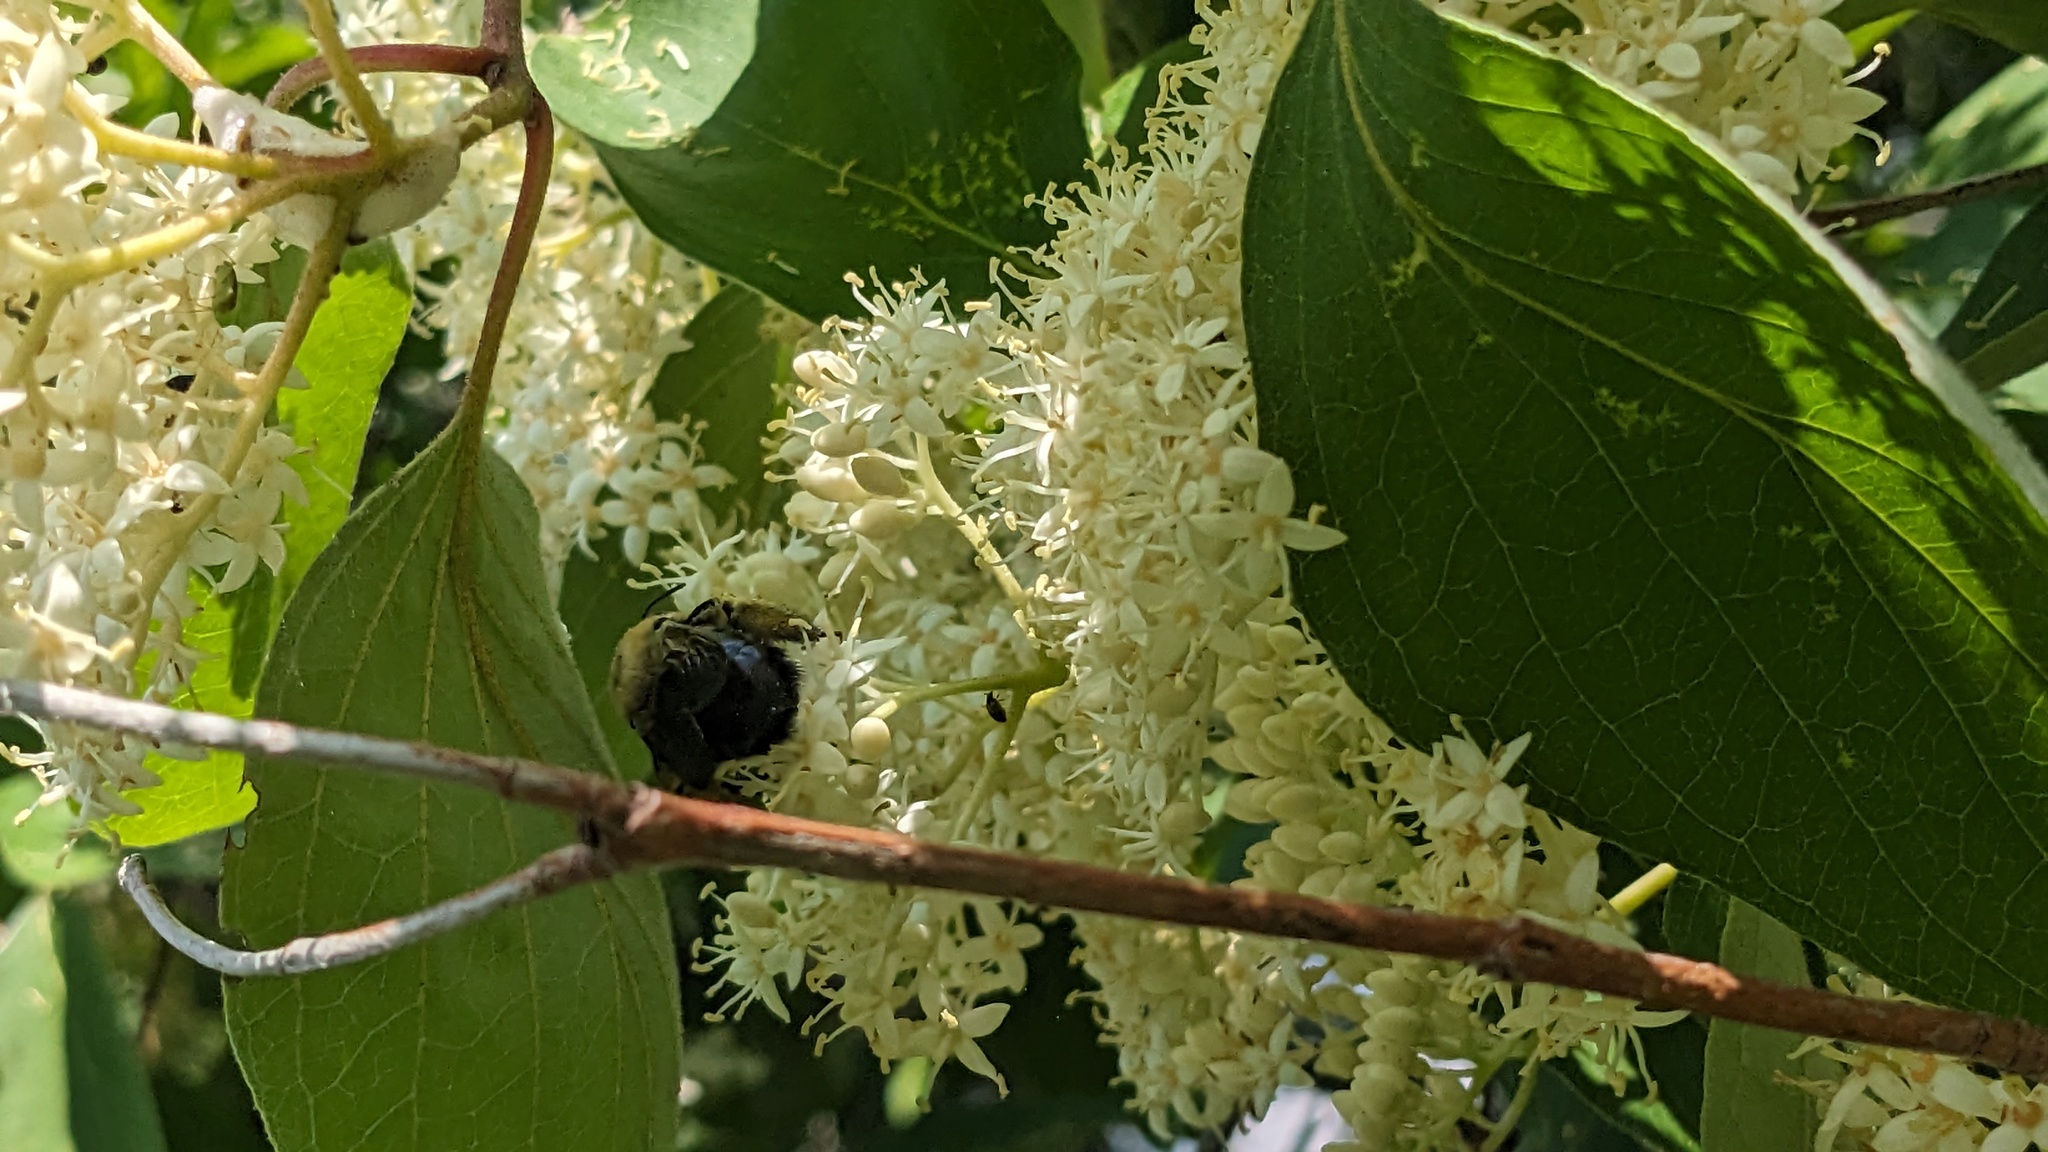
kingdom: Animalia
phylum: Arthropoda
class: Insecta
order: Hymenoptera
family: Apidae
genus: Xylocopa
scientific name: Xylocopa virginica
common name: Carpenter bee
